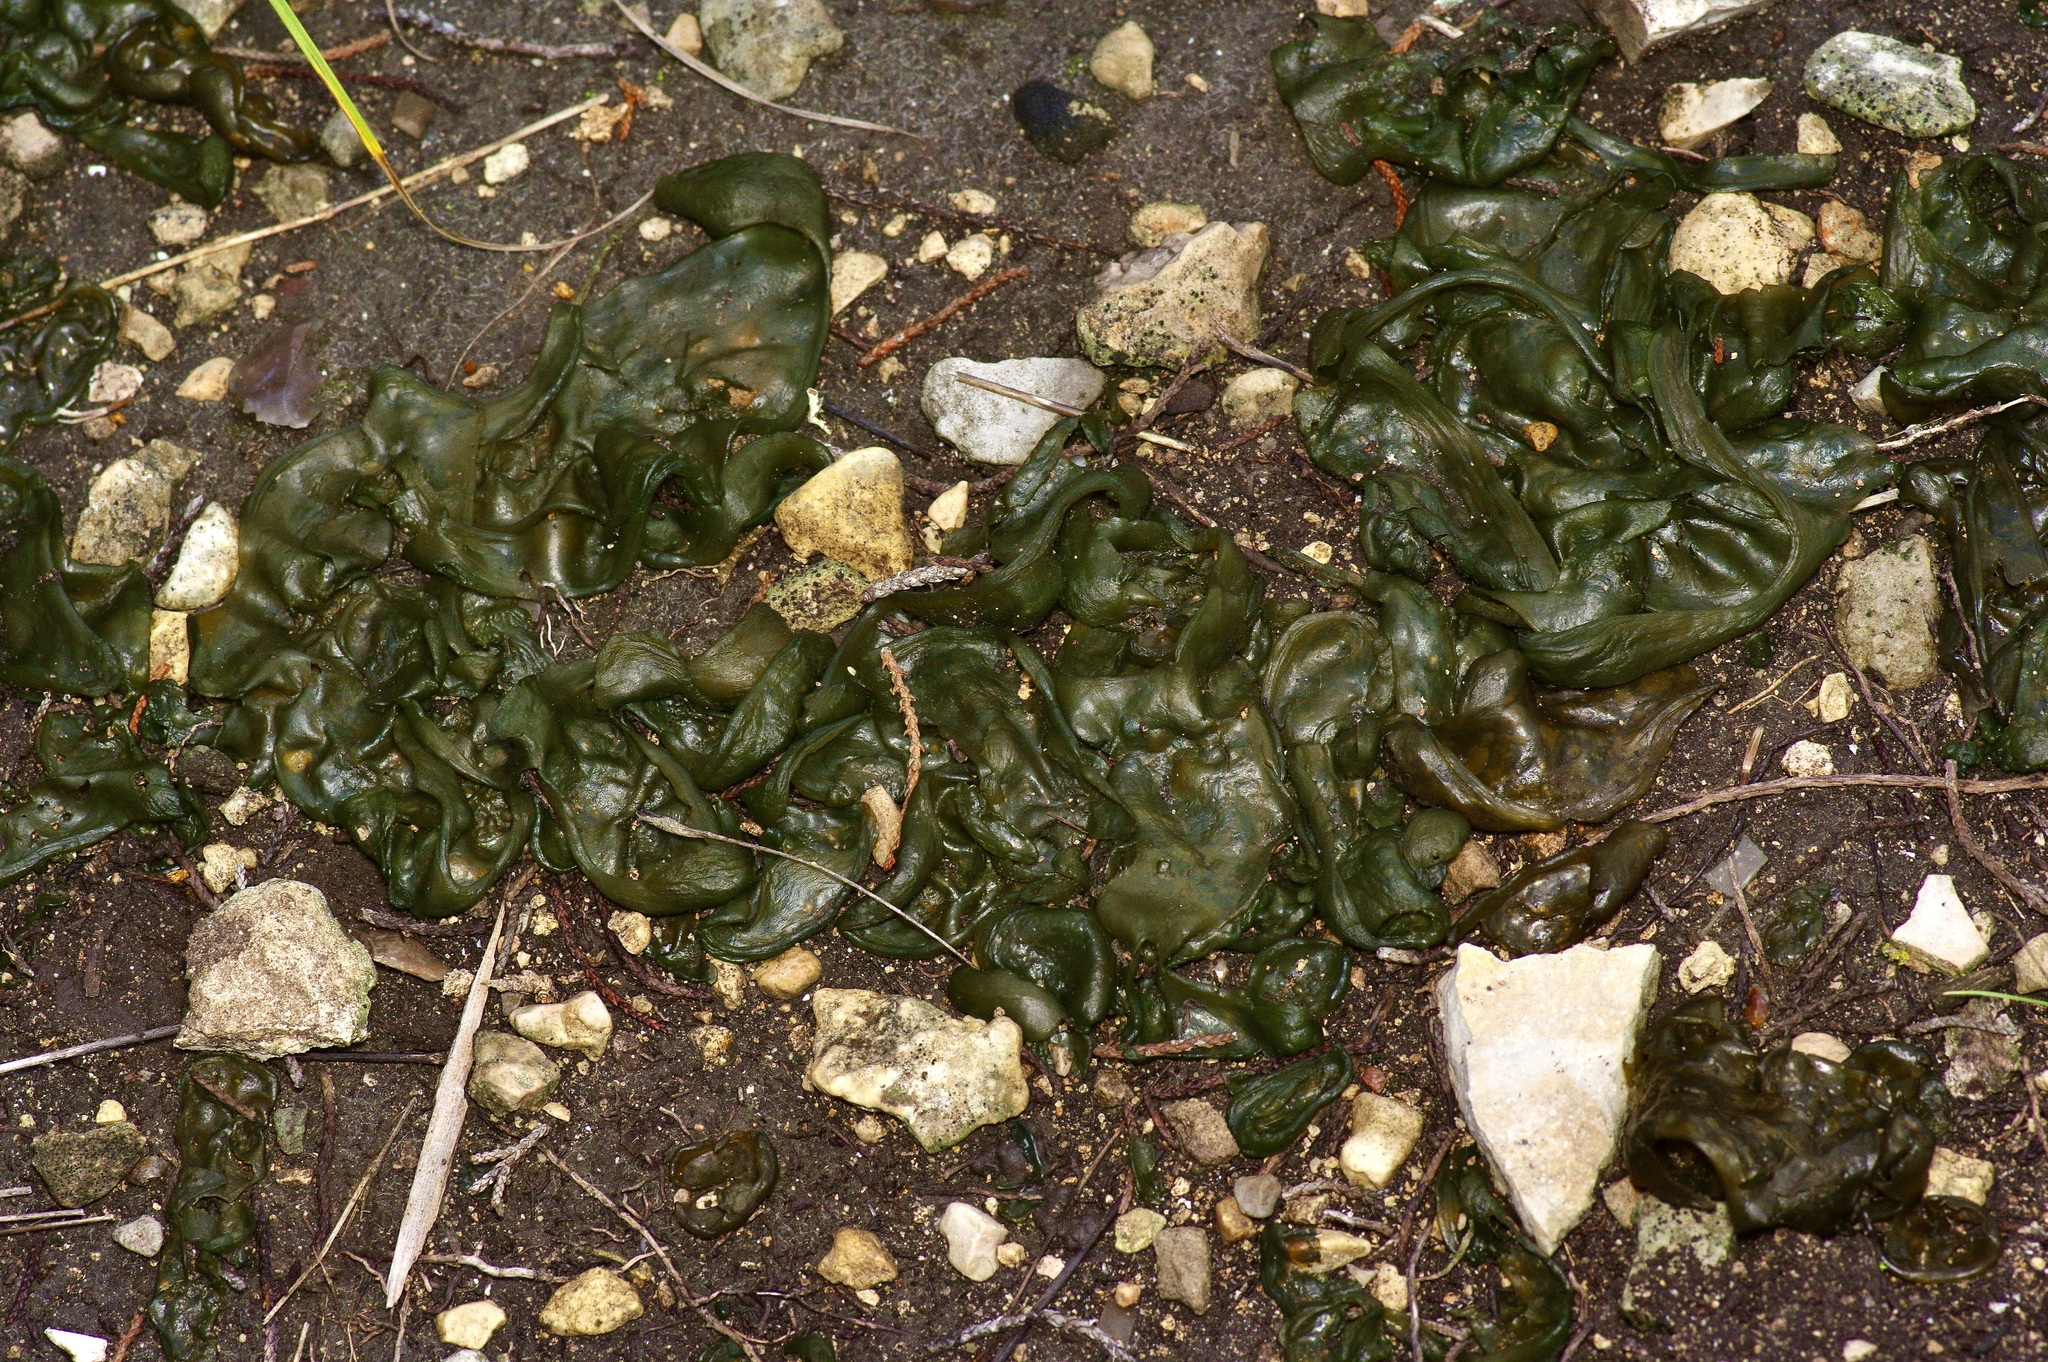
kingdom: Bacteria
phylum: Cyanobacteria
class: Cyanobacteriia
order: Cyanobacteriales
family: Nostocaceae
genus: Nostoc
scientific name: Nostoc commune
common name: Star jelly
